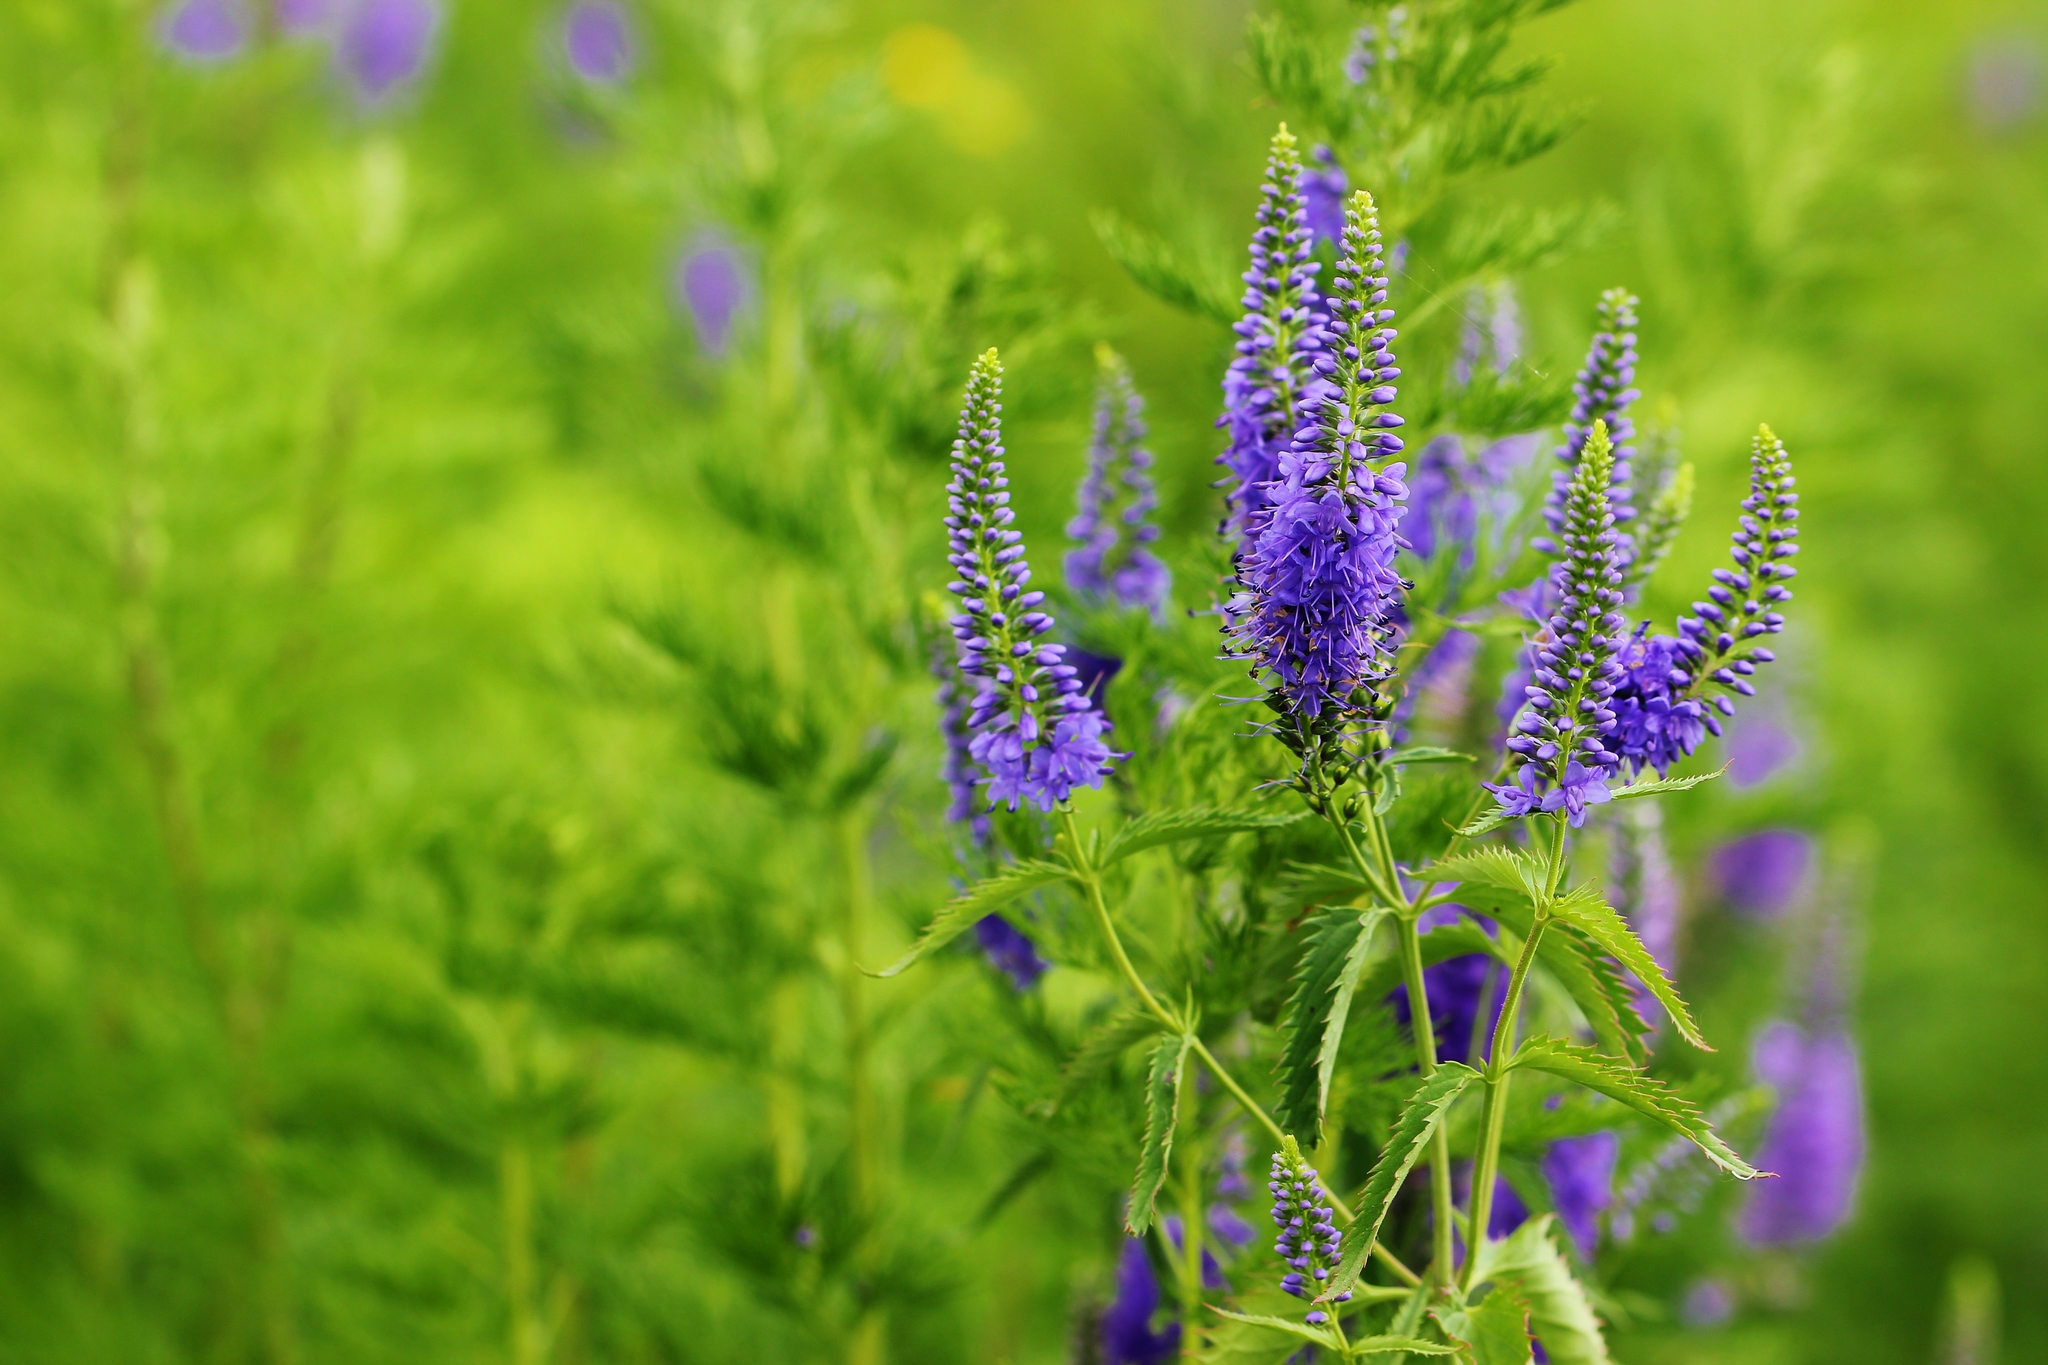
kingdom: Plantae
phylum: Tracheophyta
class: Magnoliopsida
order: Lamiales
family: Plantaginaceae
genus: Veronica
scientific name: Veronica longifolia
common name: Garden speedwell
